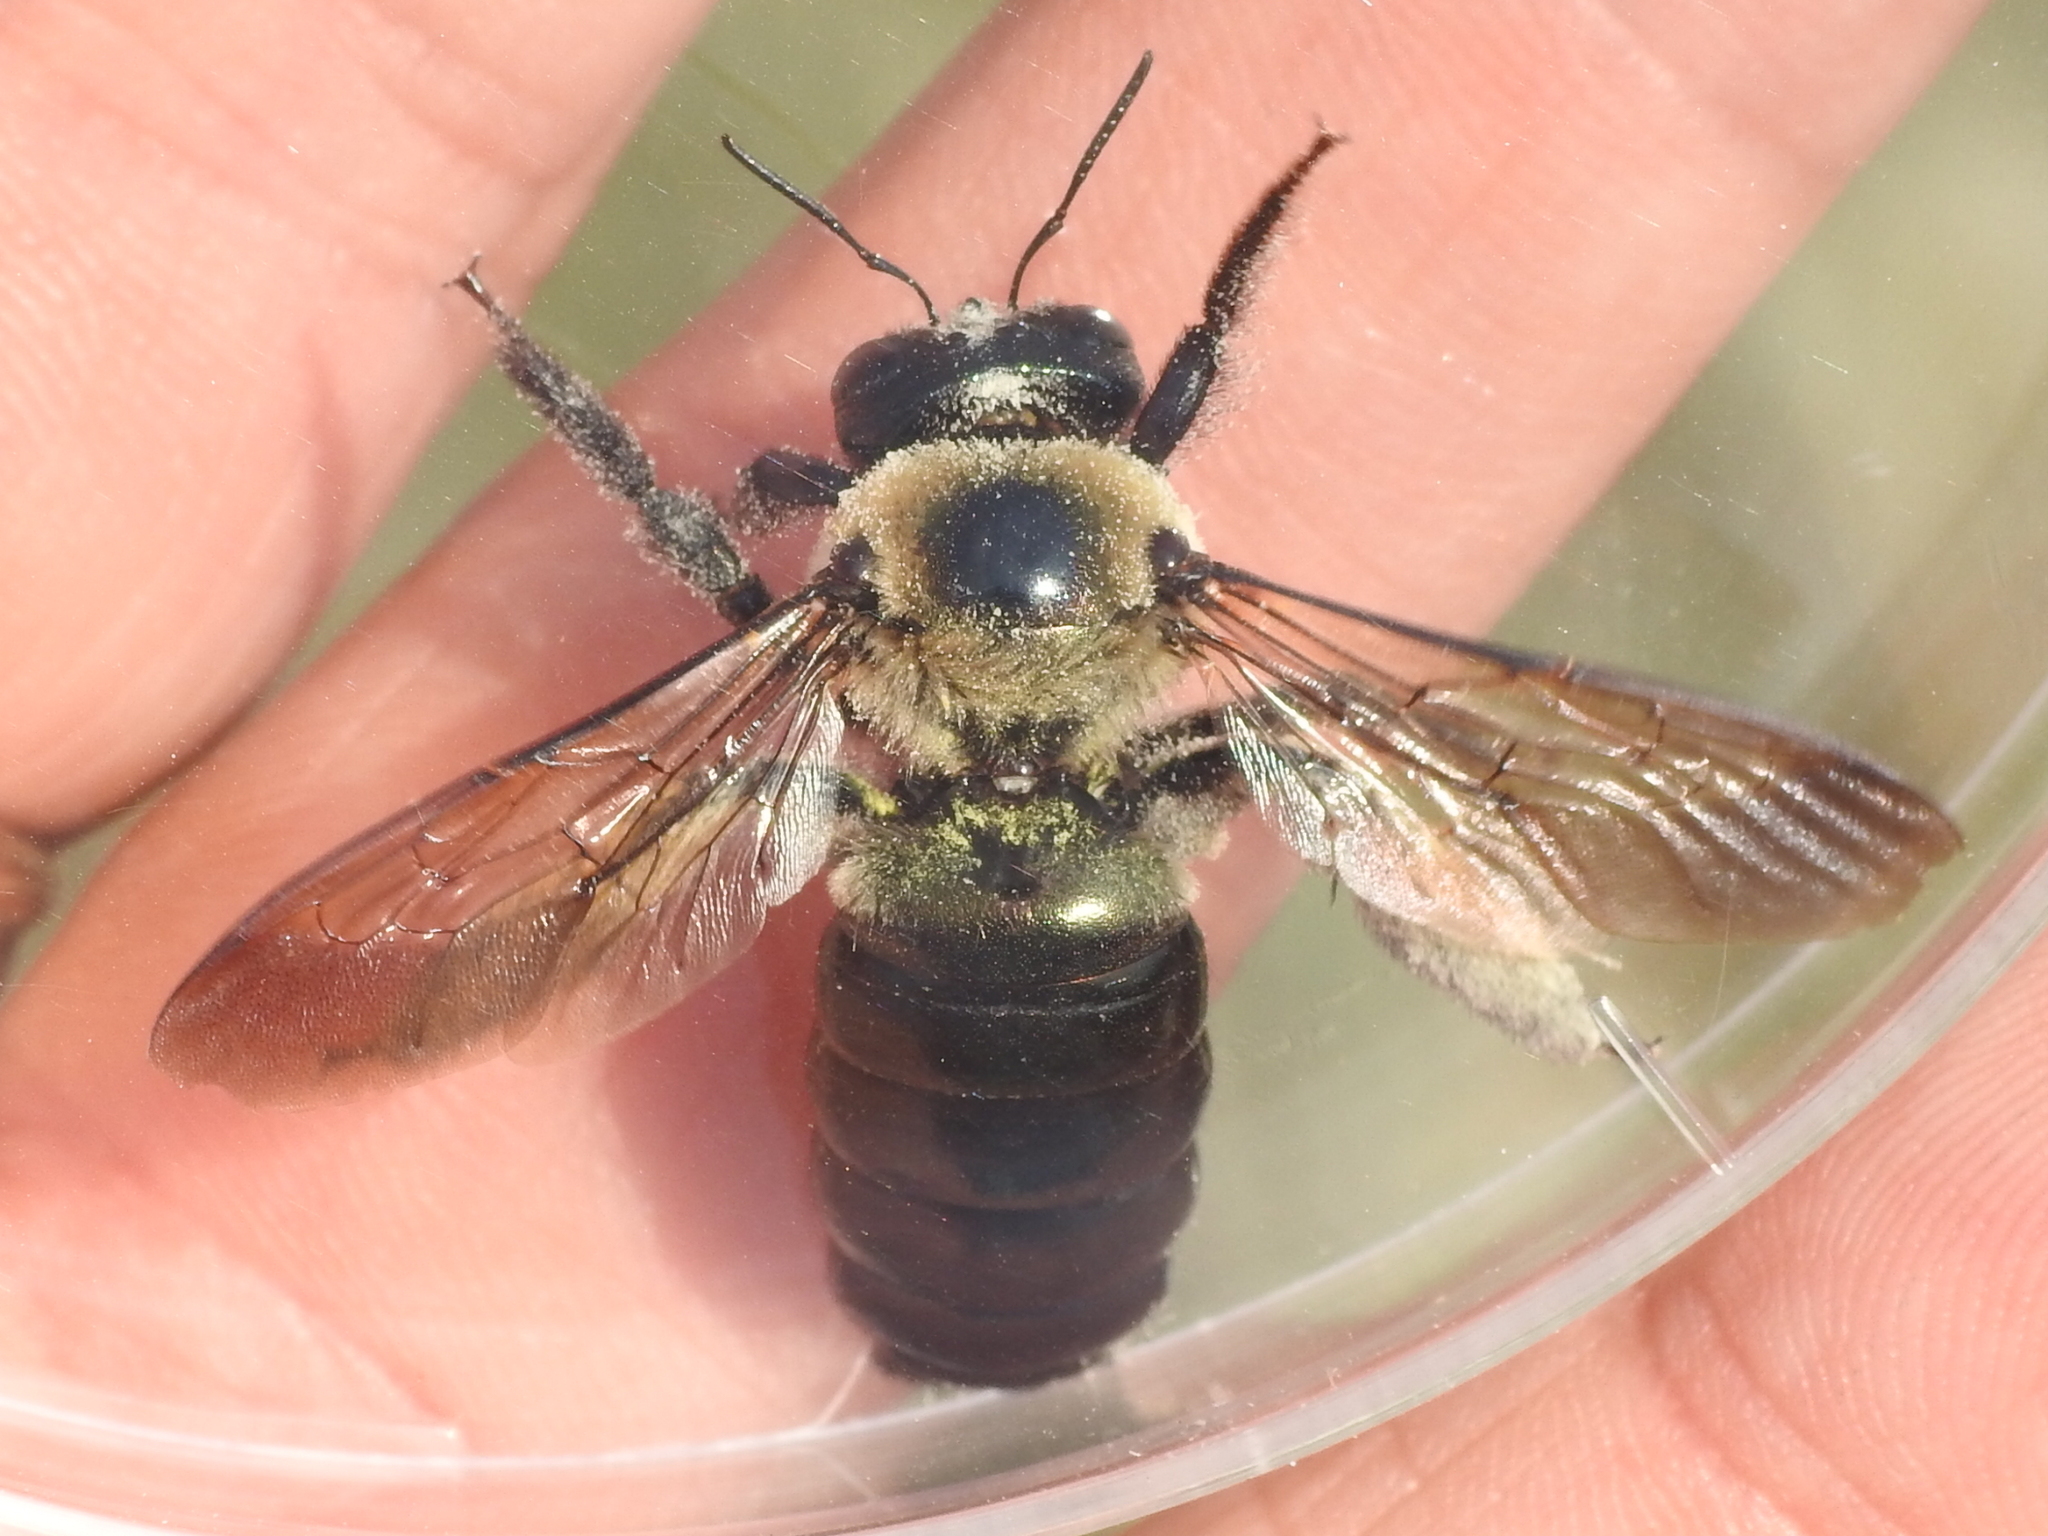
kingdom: Animalia
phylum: Arthropoda
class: Insecta
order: Hymenoptera
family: Apidae
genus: Xylocopa
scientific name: Xylocopa virginica
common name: Carpenter bee
